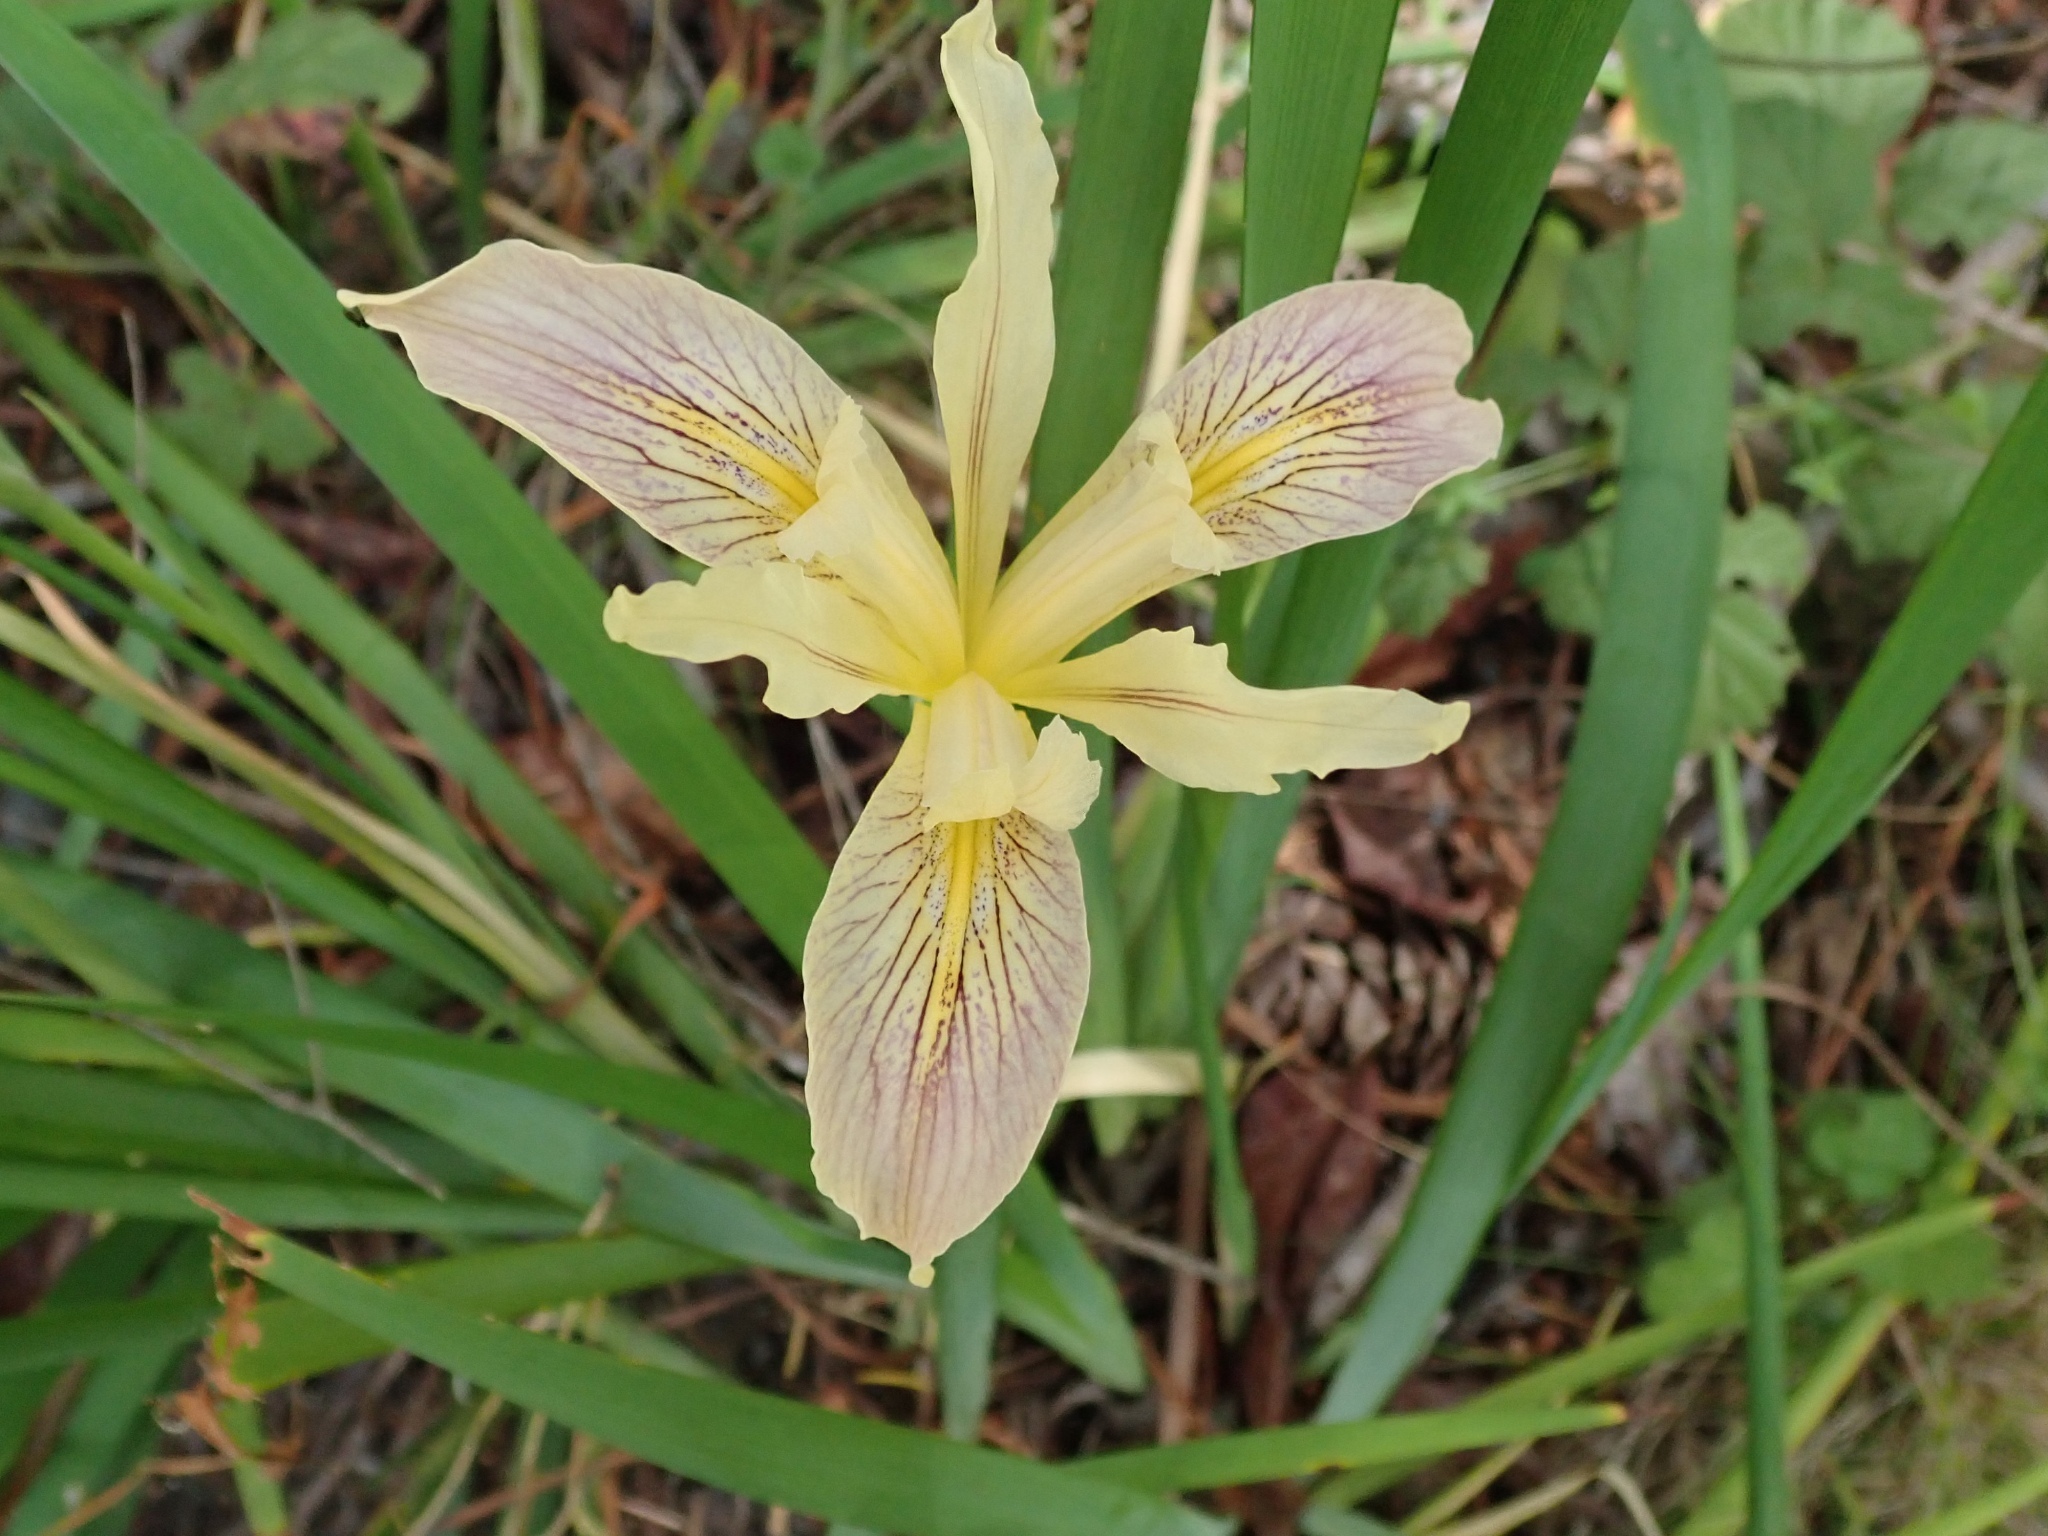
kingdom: Plantae
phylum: Tracheophyta
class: Liliopsida
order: Asparagales
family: Iridaceae
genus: Iris
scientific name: Iris fernaldii
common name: Fernald's iris
